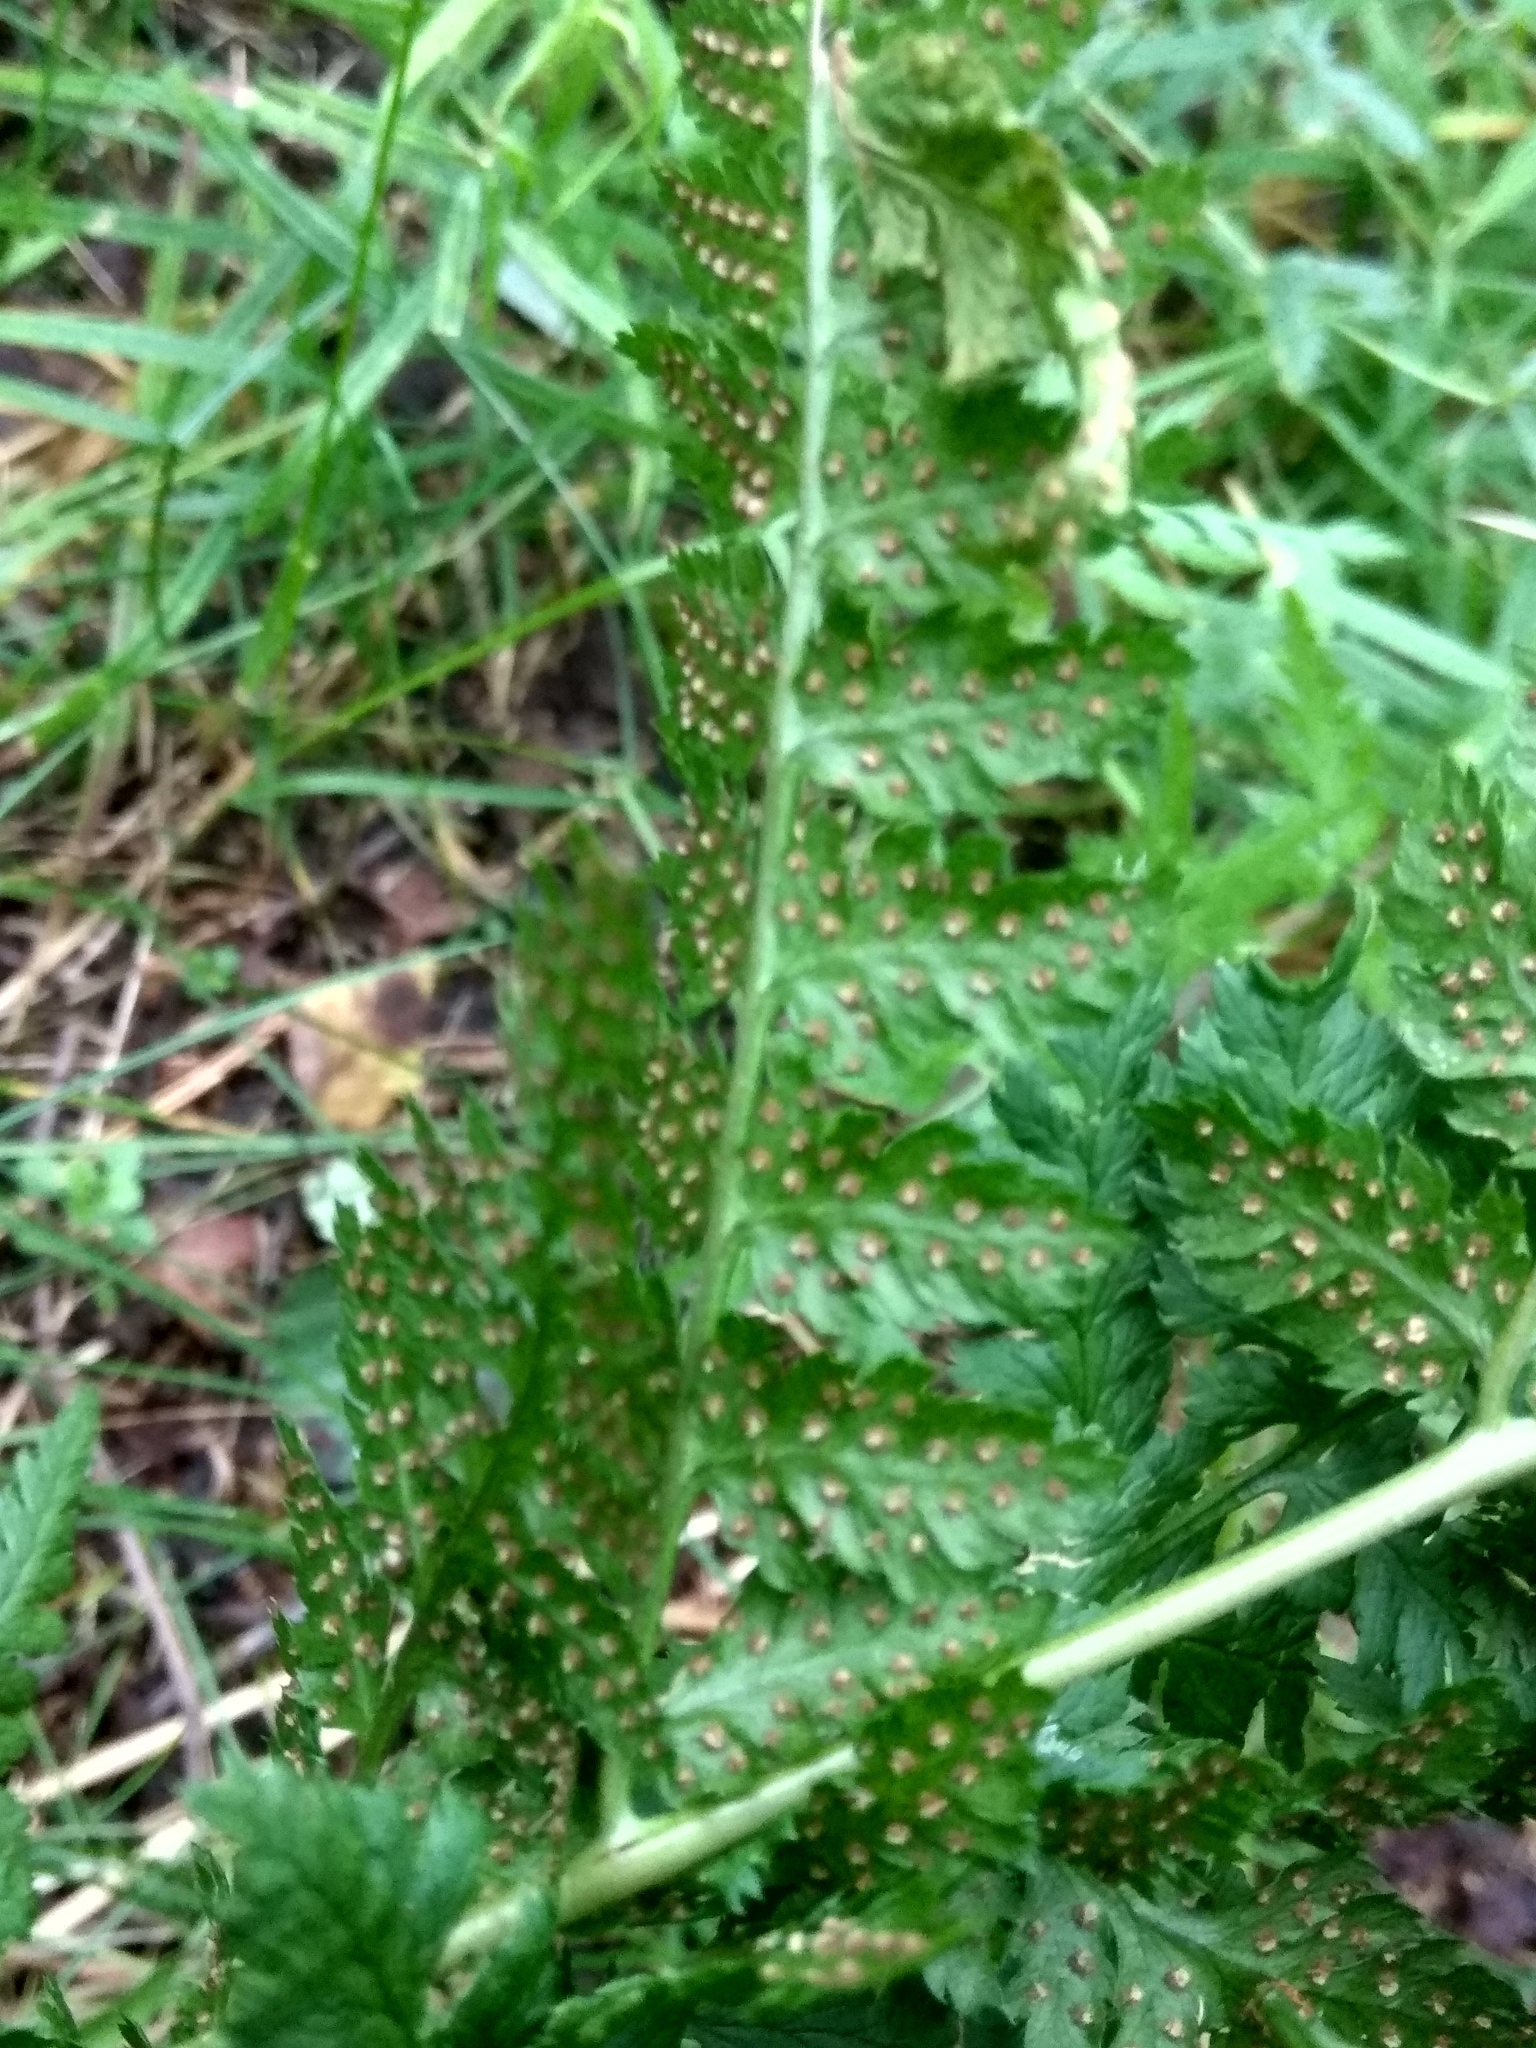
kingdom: Plantae
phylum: Tracheophyta
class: Polypodiopsida
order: Polypodiales
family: Dryopteridaceae
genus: Dryopteris
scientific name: Dryopteris carthusiana
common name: Narrow buckler-fern
